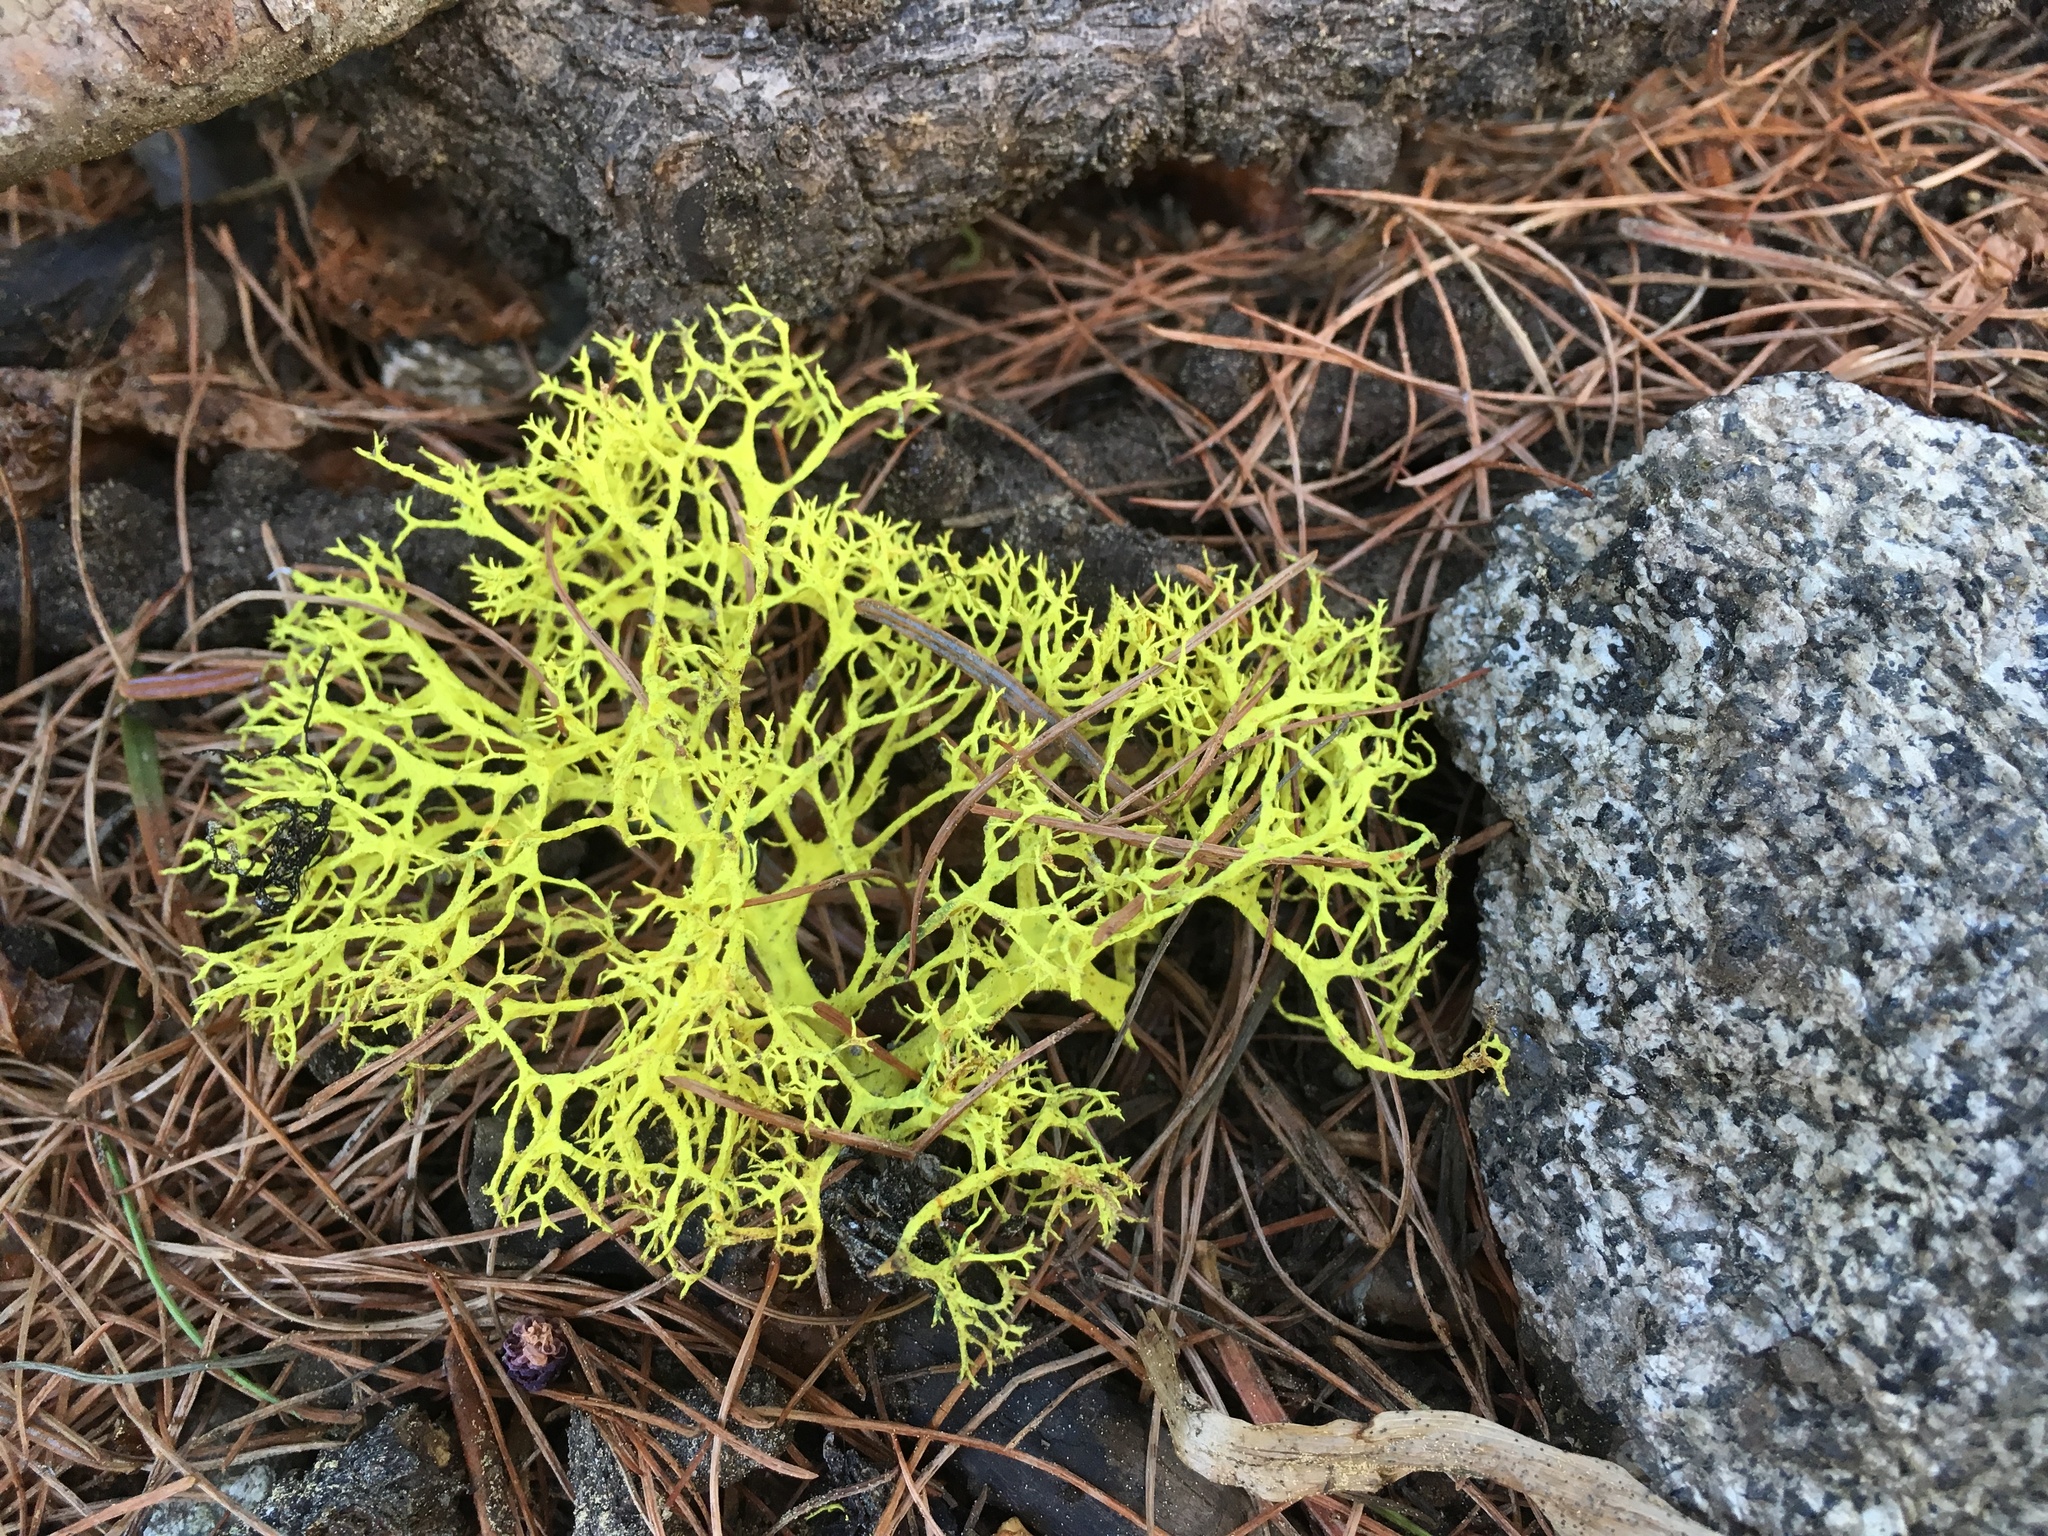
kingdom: Fungi
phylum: Ascomycota
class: Lecanoromycetes
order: Lecanorales
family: Parmeliaceae
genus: Letharia
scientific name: Letharia vulpina
